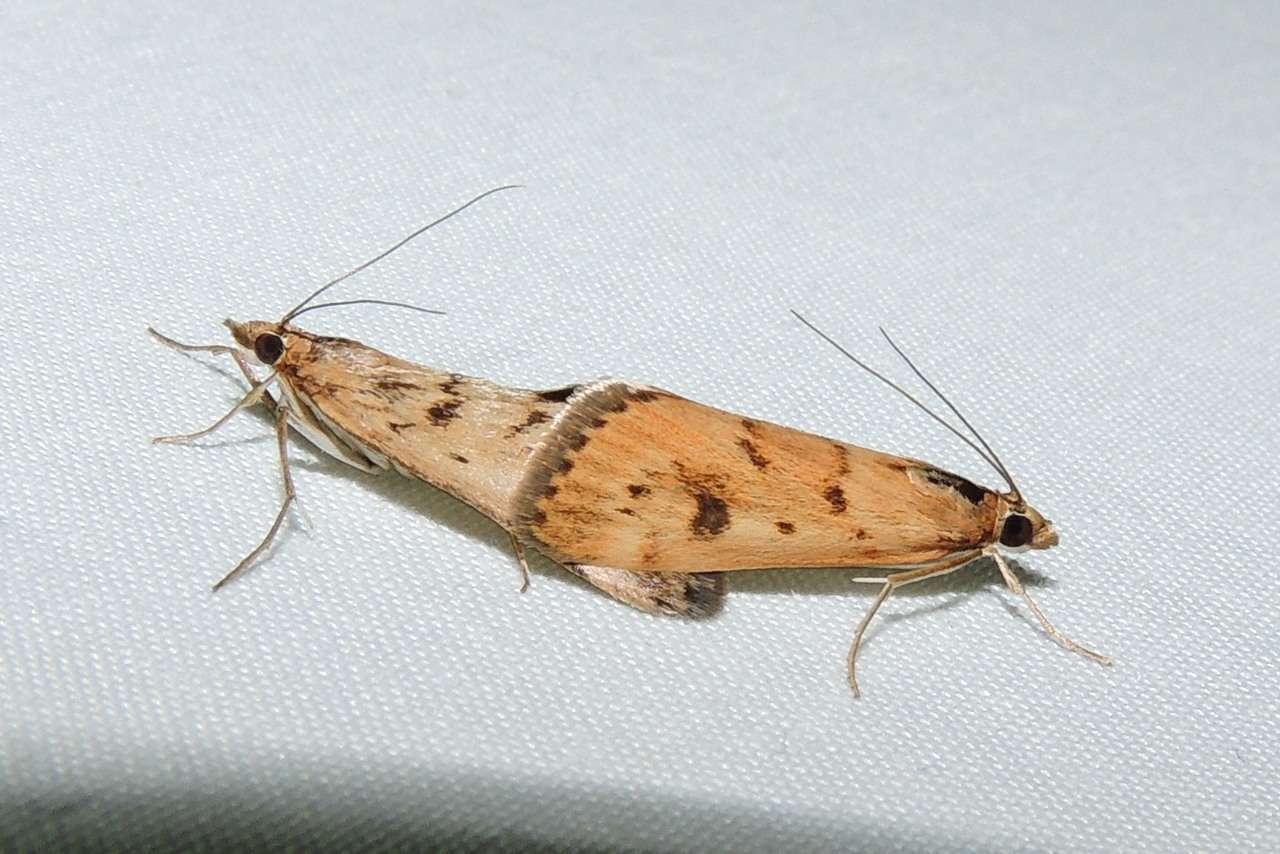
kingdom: Animalia
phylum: Arthropoda
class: Insecta
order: Lepidoptera
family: Crambidae
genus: Achyra
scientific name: Achyra affinitalis
